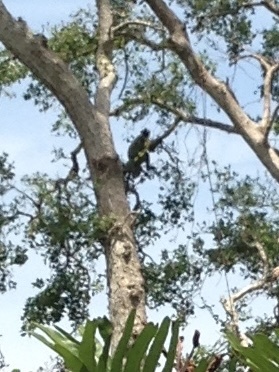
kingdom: Animalia
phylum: Chordata
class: Mammalia
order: Primates
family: Cercopithecidae
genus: Semnopithecus
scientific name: Semnopithecus priam
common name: Tufted gray langur
